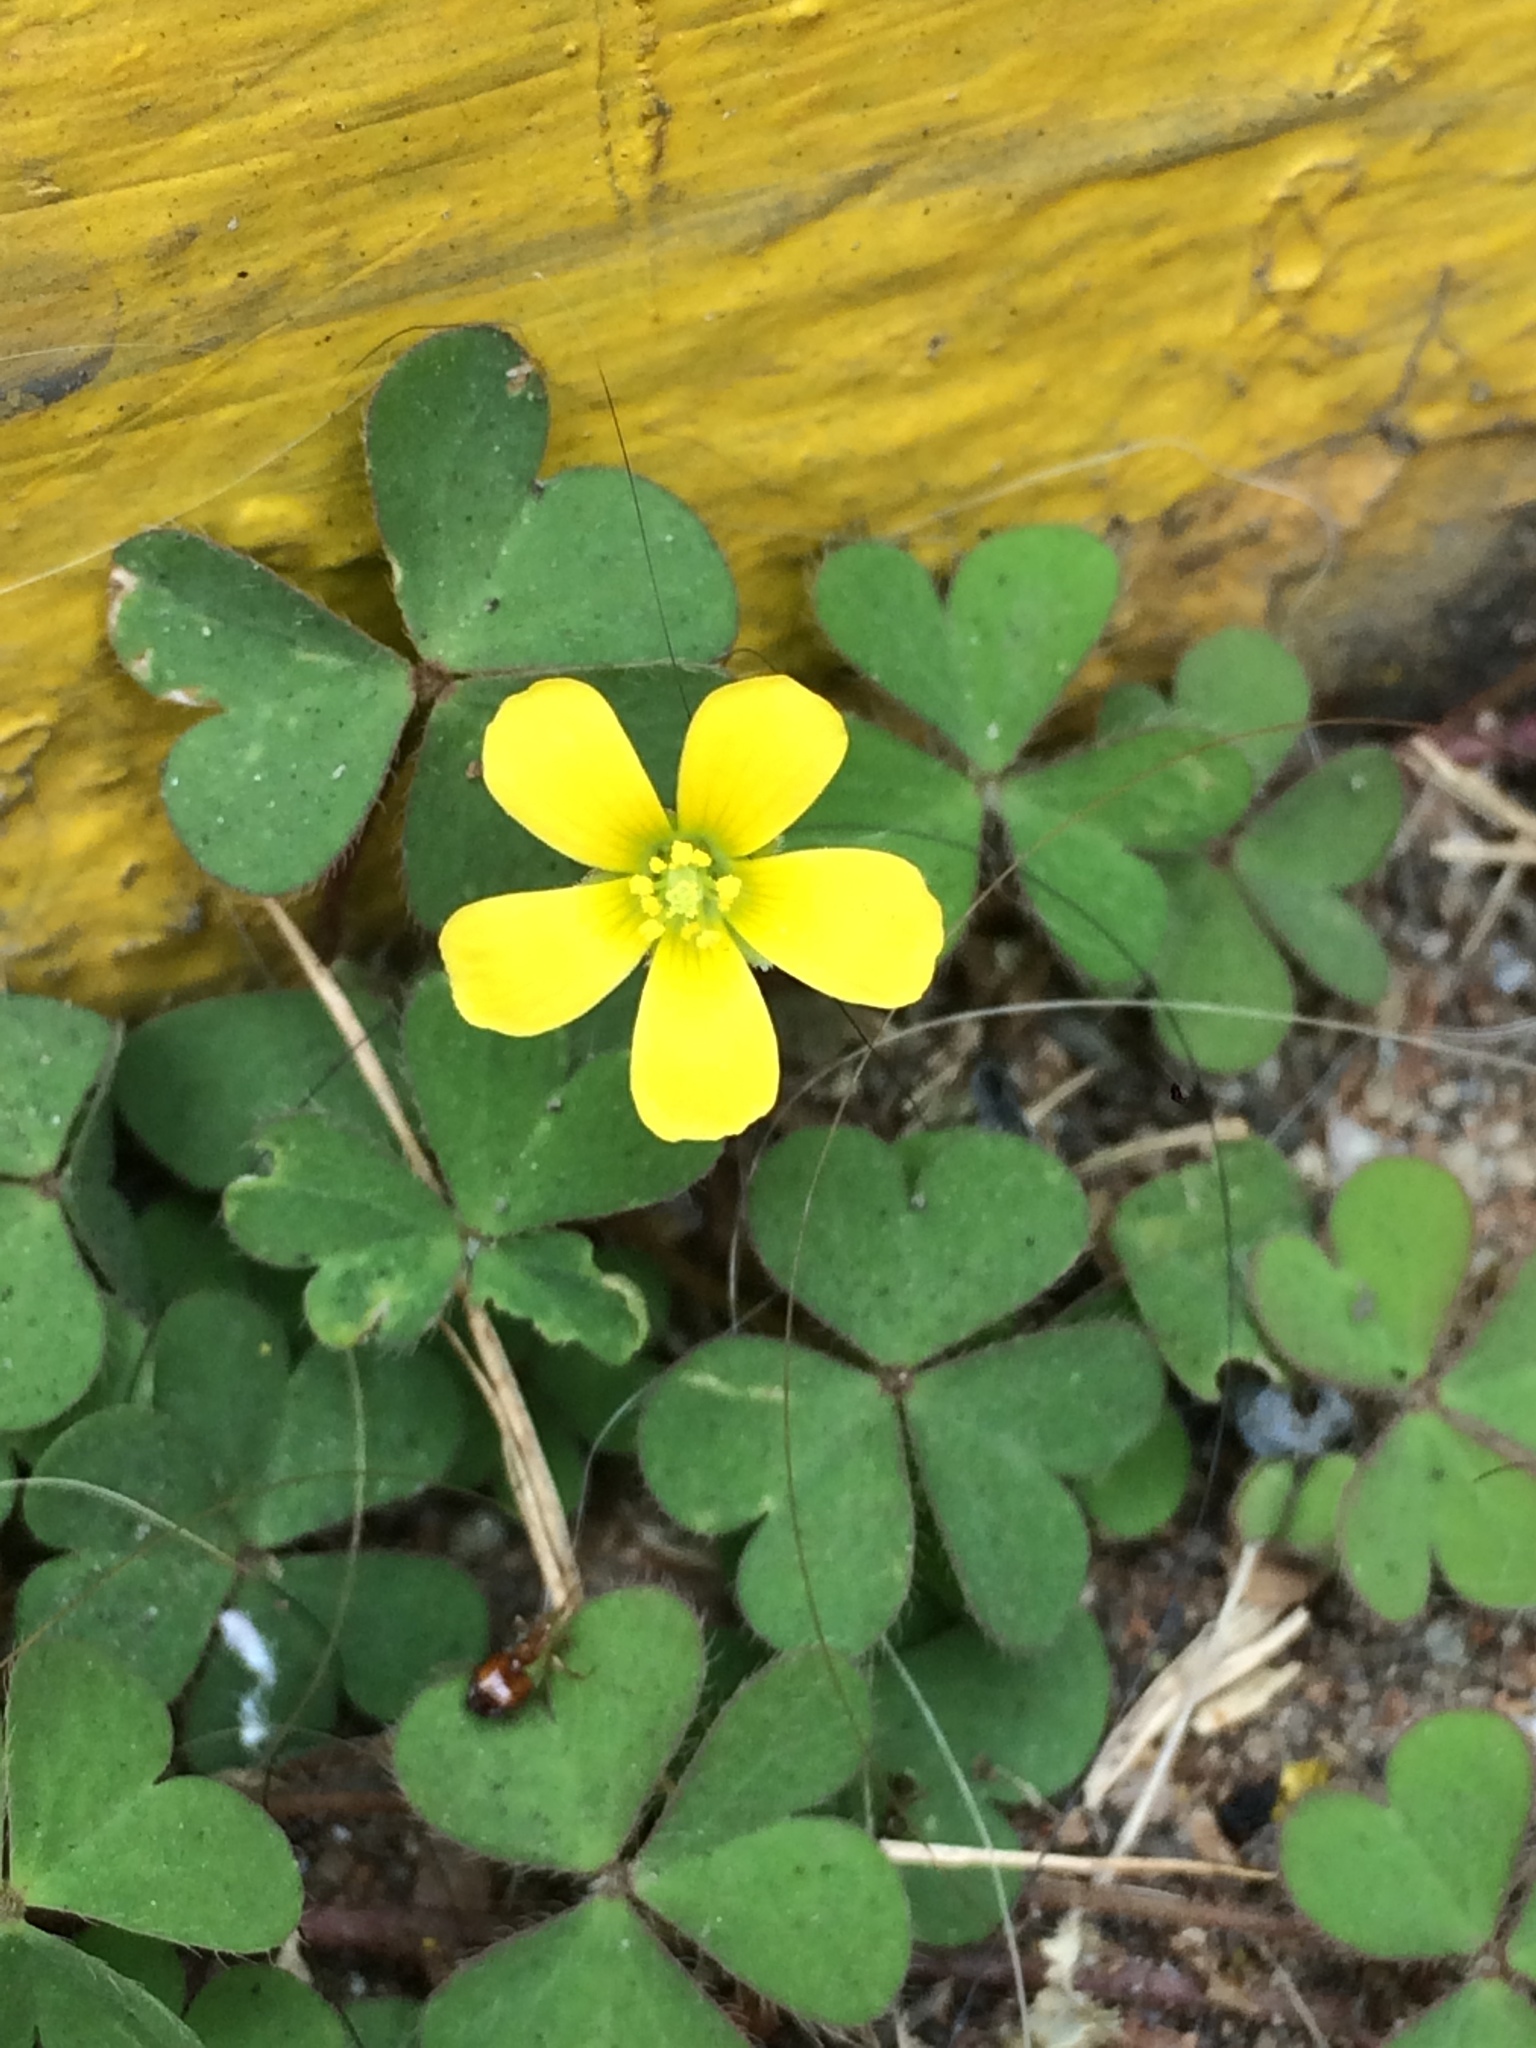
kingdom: Plantae
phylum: Tracheophyta
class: Magnoliopsida
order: Oxalidales
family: Oxalidaceae
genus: Oxalis
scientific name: Oxalis corniculata
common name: Procumbent yellow-sorrel
